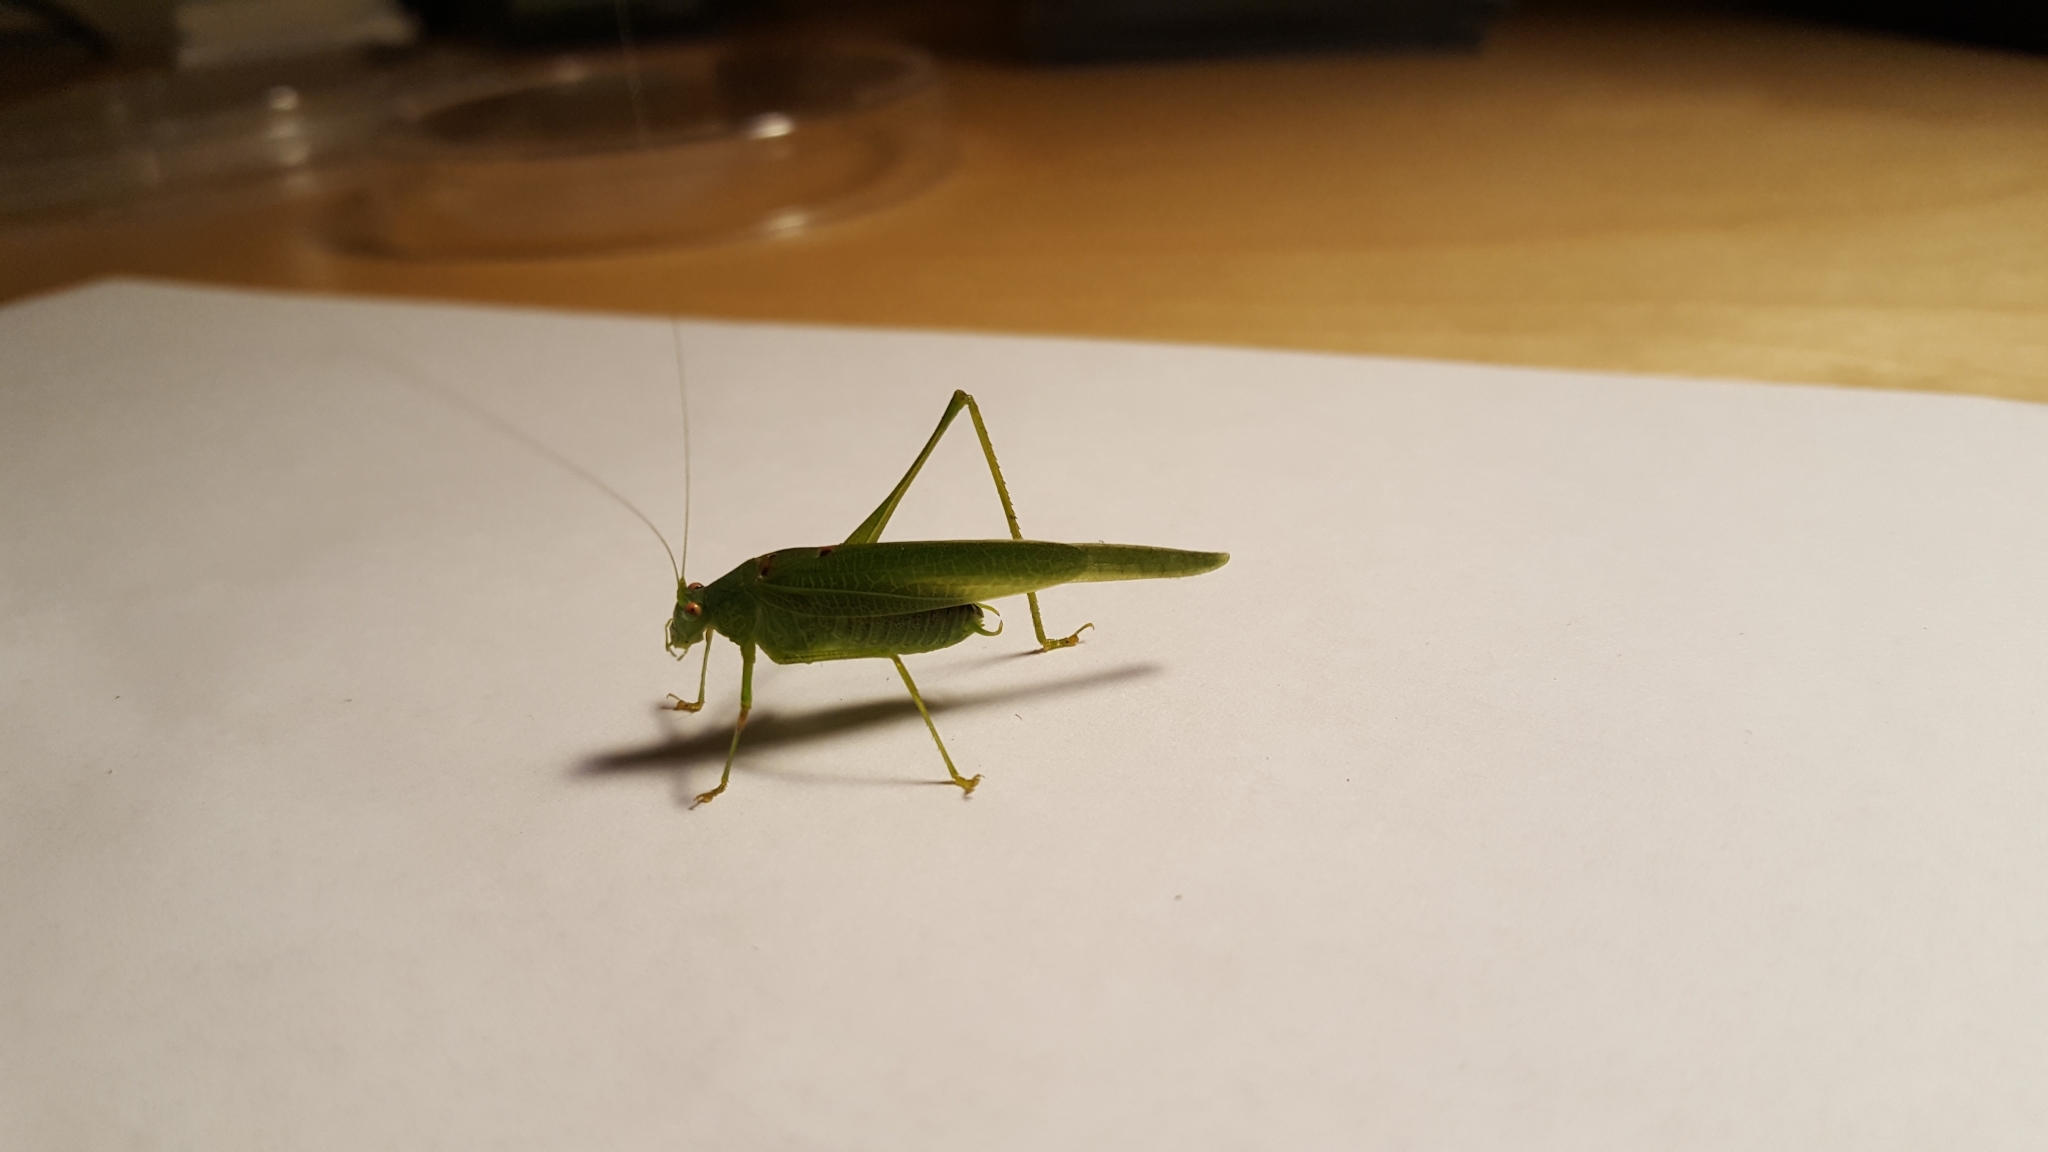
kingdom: Animalia
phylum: Arthropoda
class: Insecta
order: Orthoptera
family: Tettigoniidae
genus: Phaneroptera
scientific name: Phaneroptera nana
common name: Southern sickle bush-cricket
